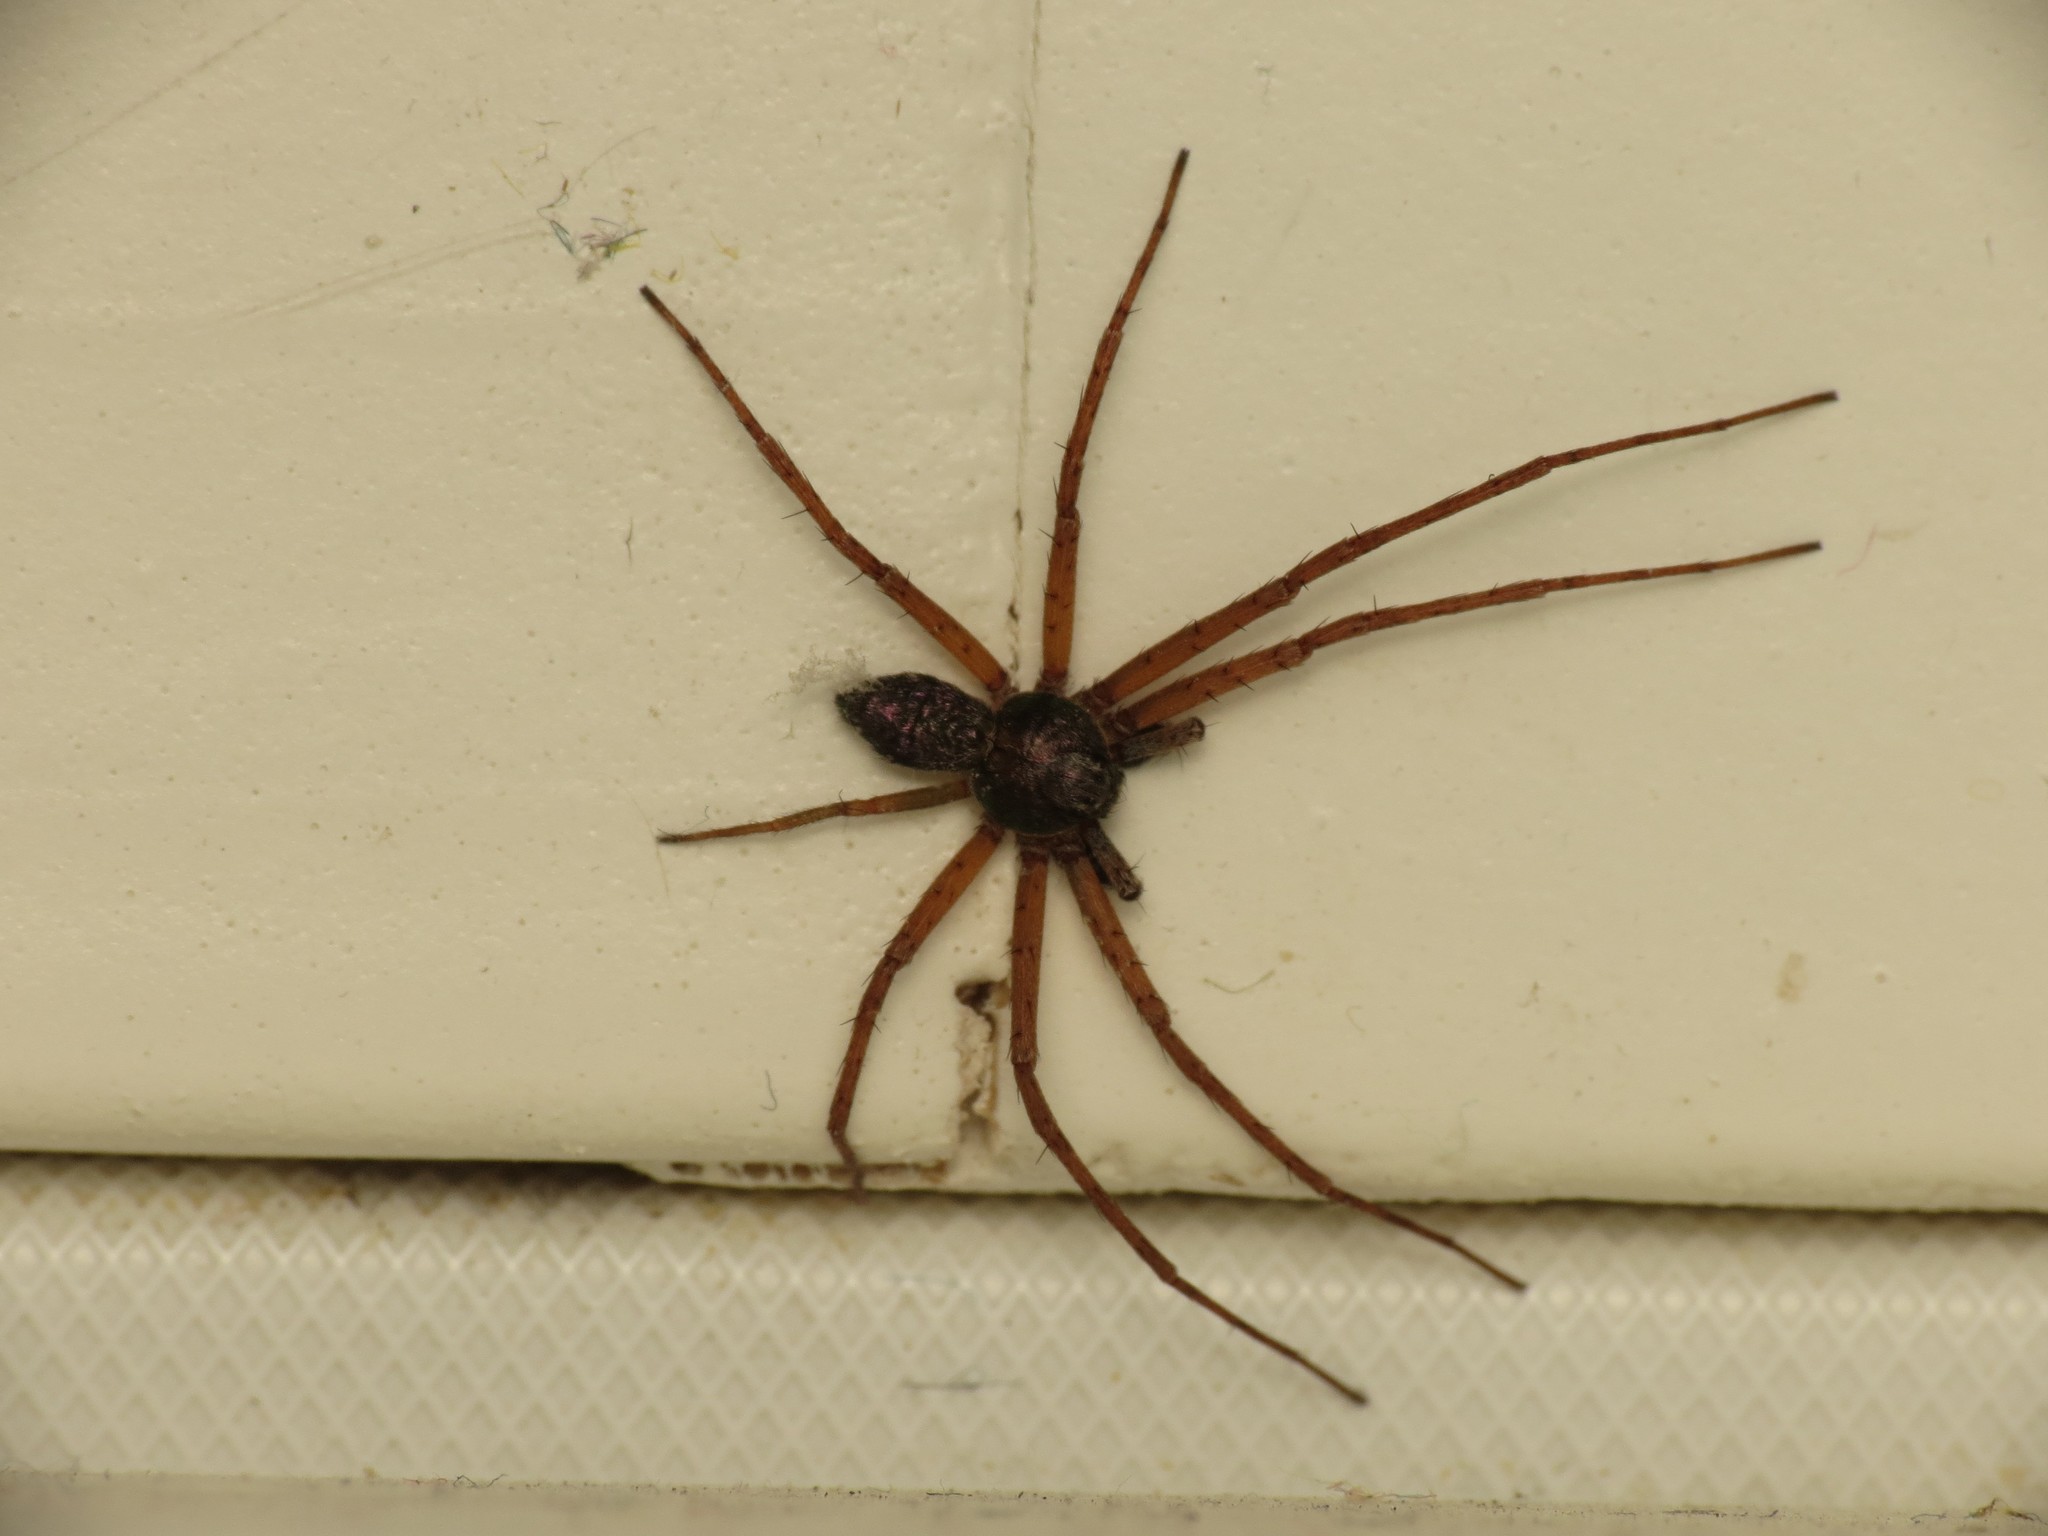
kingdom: Animalia
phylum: Arthropoda
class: Arachnida
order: Araneae
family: Philodromidae
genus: Philodromus
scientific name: Philodromus
